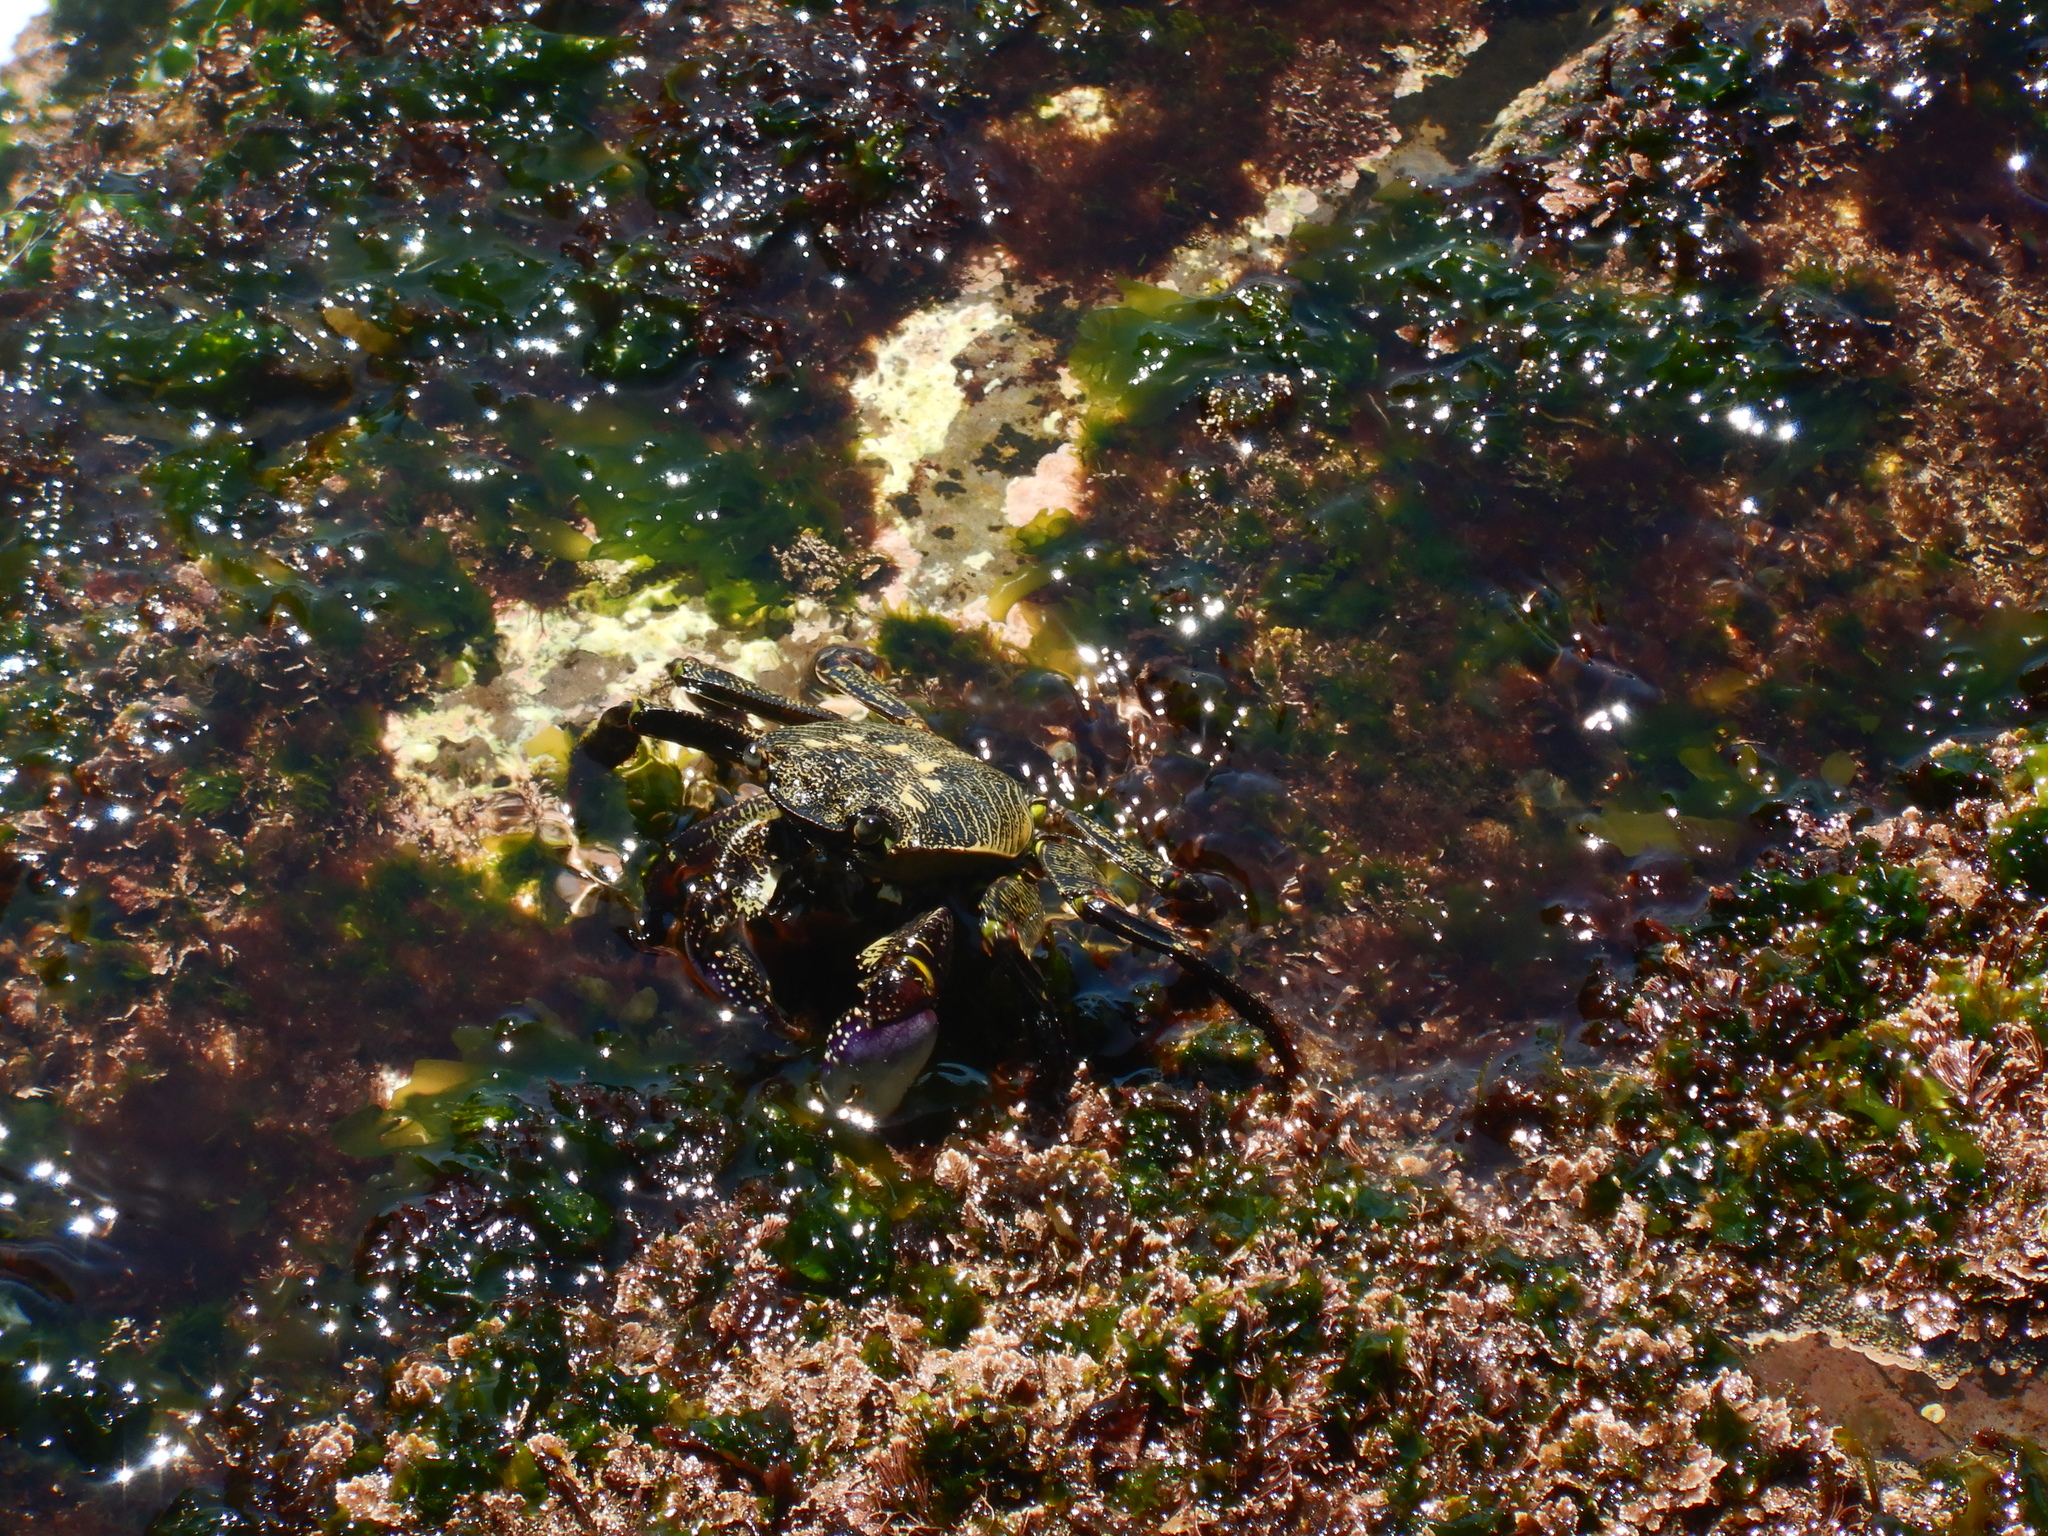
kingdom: Animalia
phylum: Arthropoda
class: Malacostraca
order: Decapoda
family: Grapsidae
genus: Leptograpsus
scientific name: Leptograpsus variegatus
